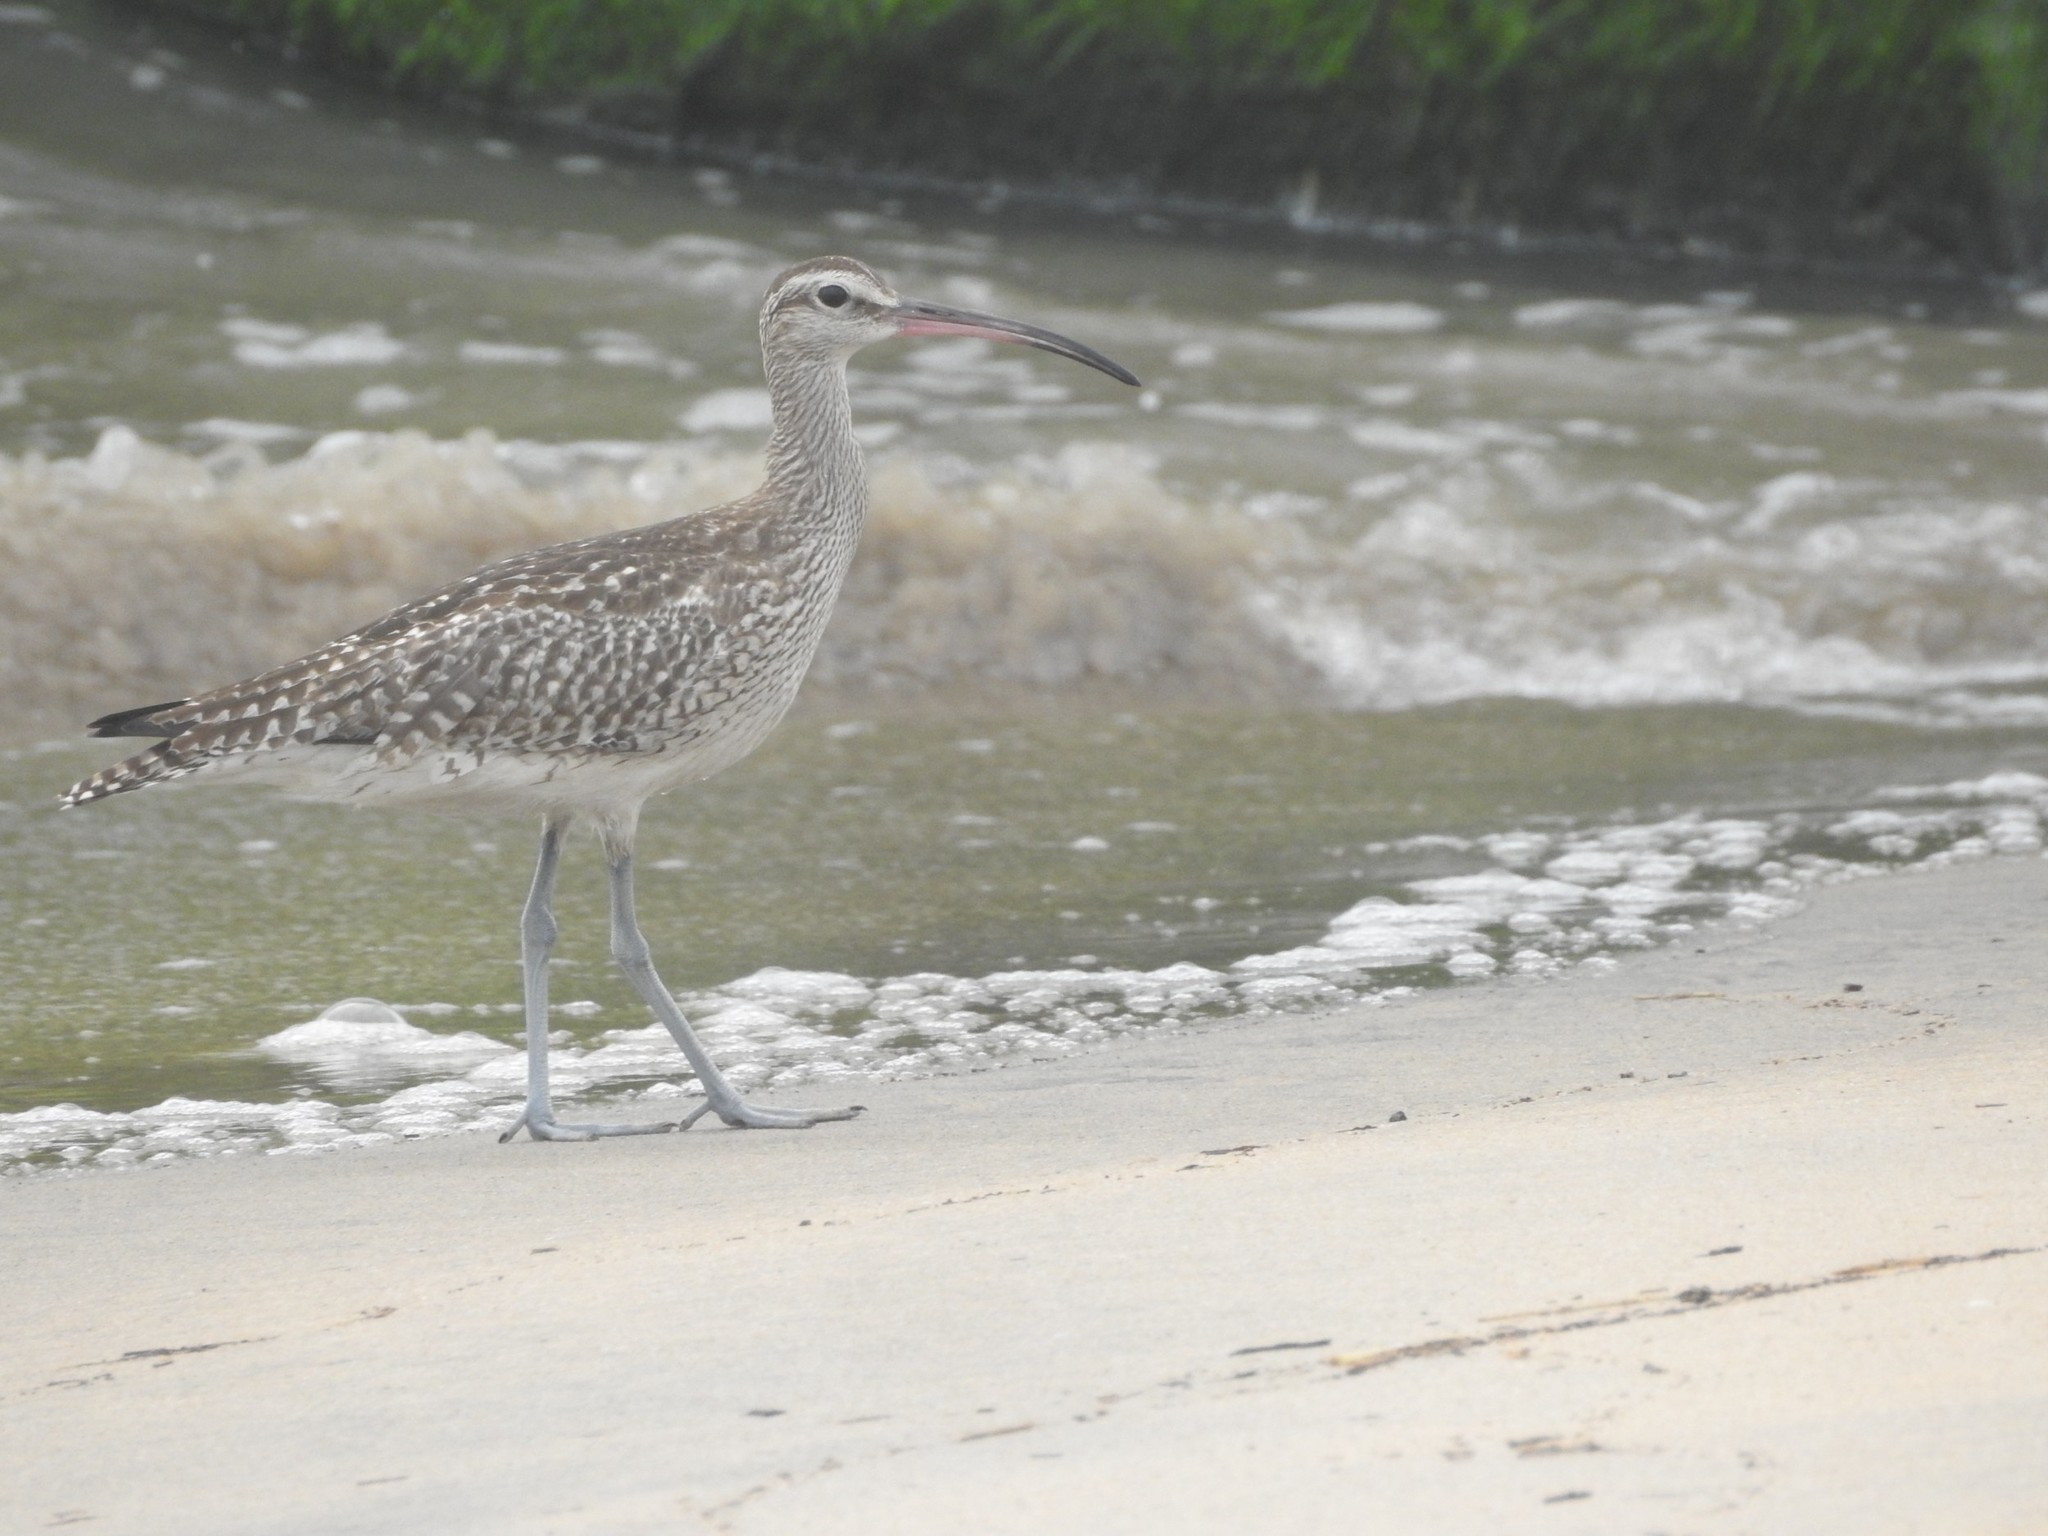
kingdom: Animalia
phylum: Chordata
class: Aves
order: Charadriiformes
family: Scolopacidae
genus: Numenius
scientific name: Numenius phaeopus
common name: Whimbrel
